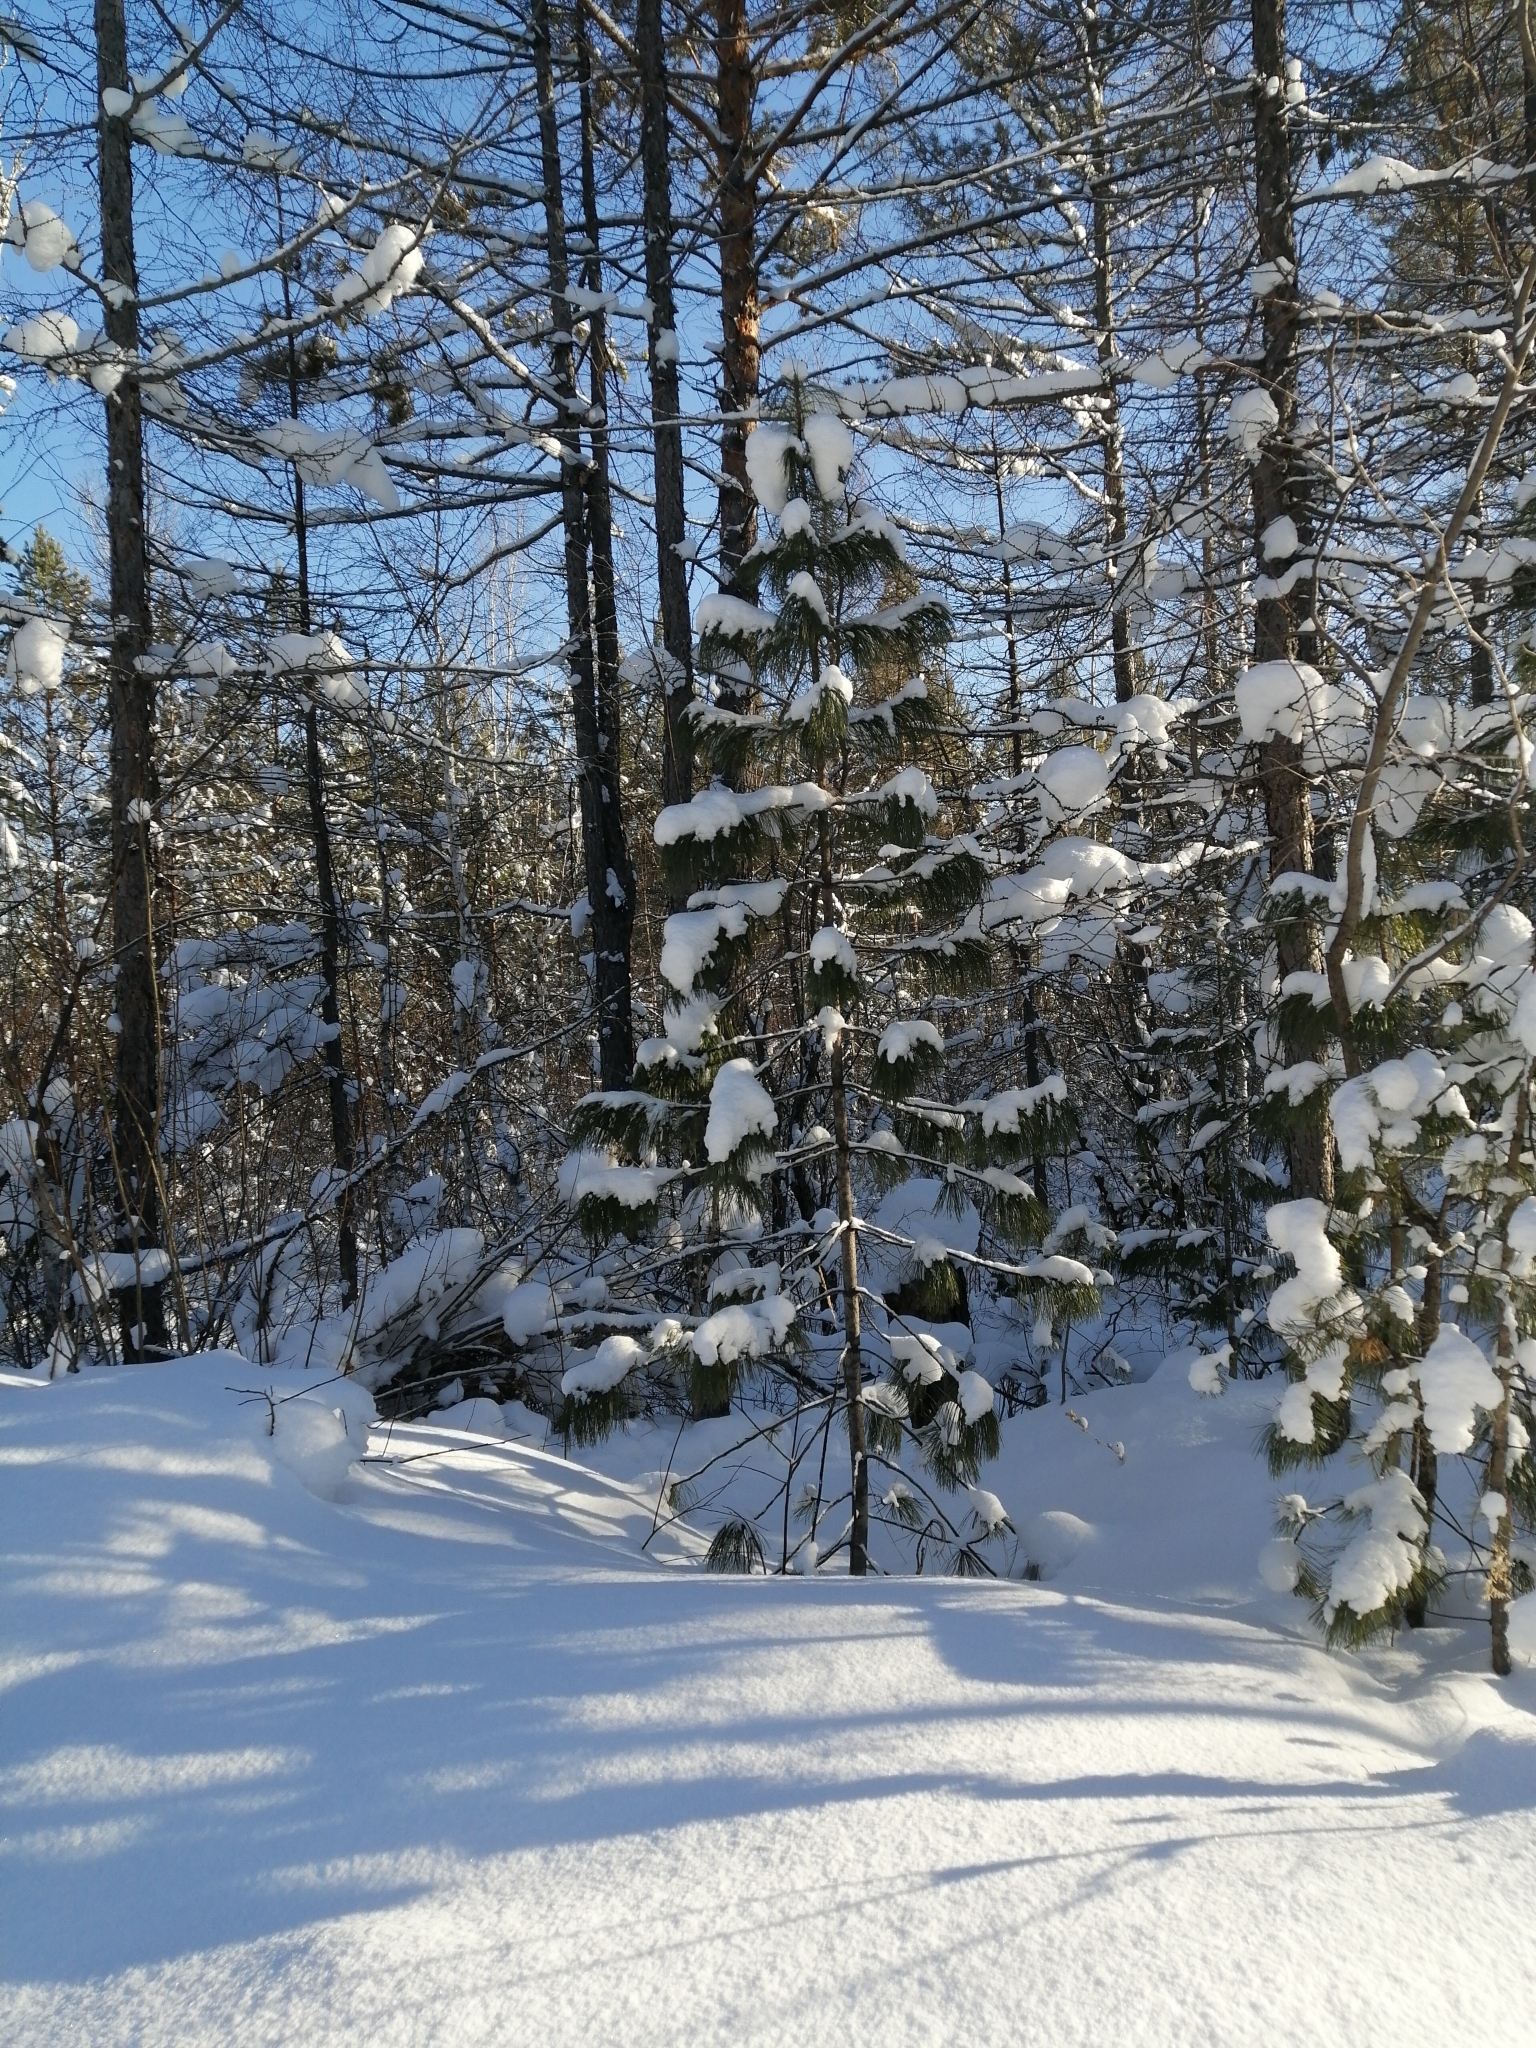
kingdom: Plantae
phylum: Tracheophyta
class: Pinopsida
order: Pinales
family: Pinaceae
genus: Pinus
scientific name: Pinus sibirica
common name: Siberian pine
